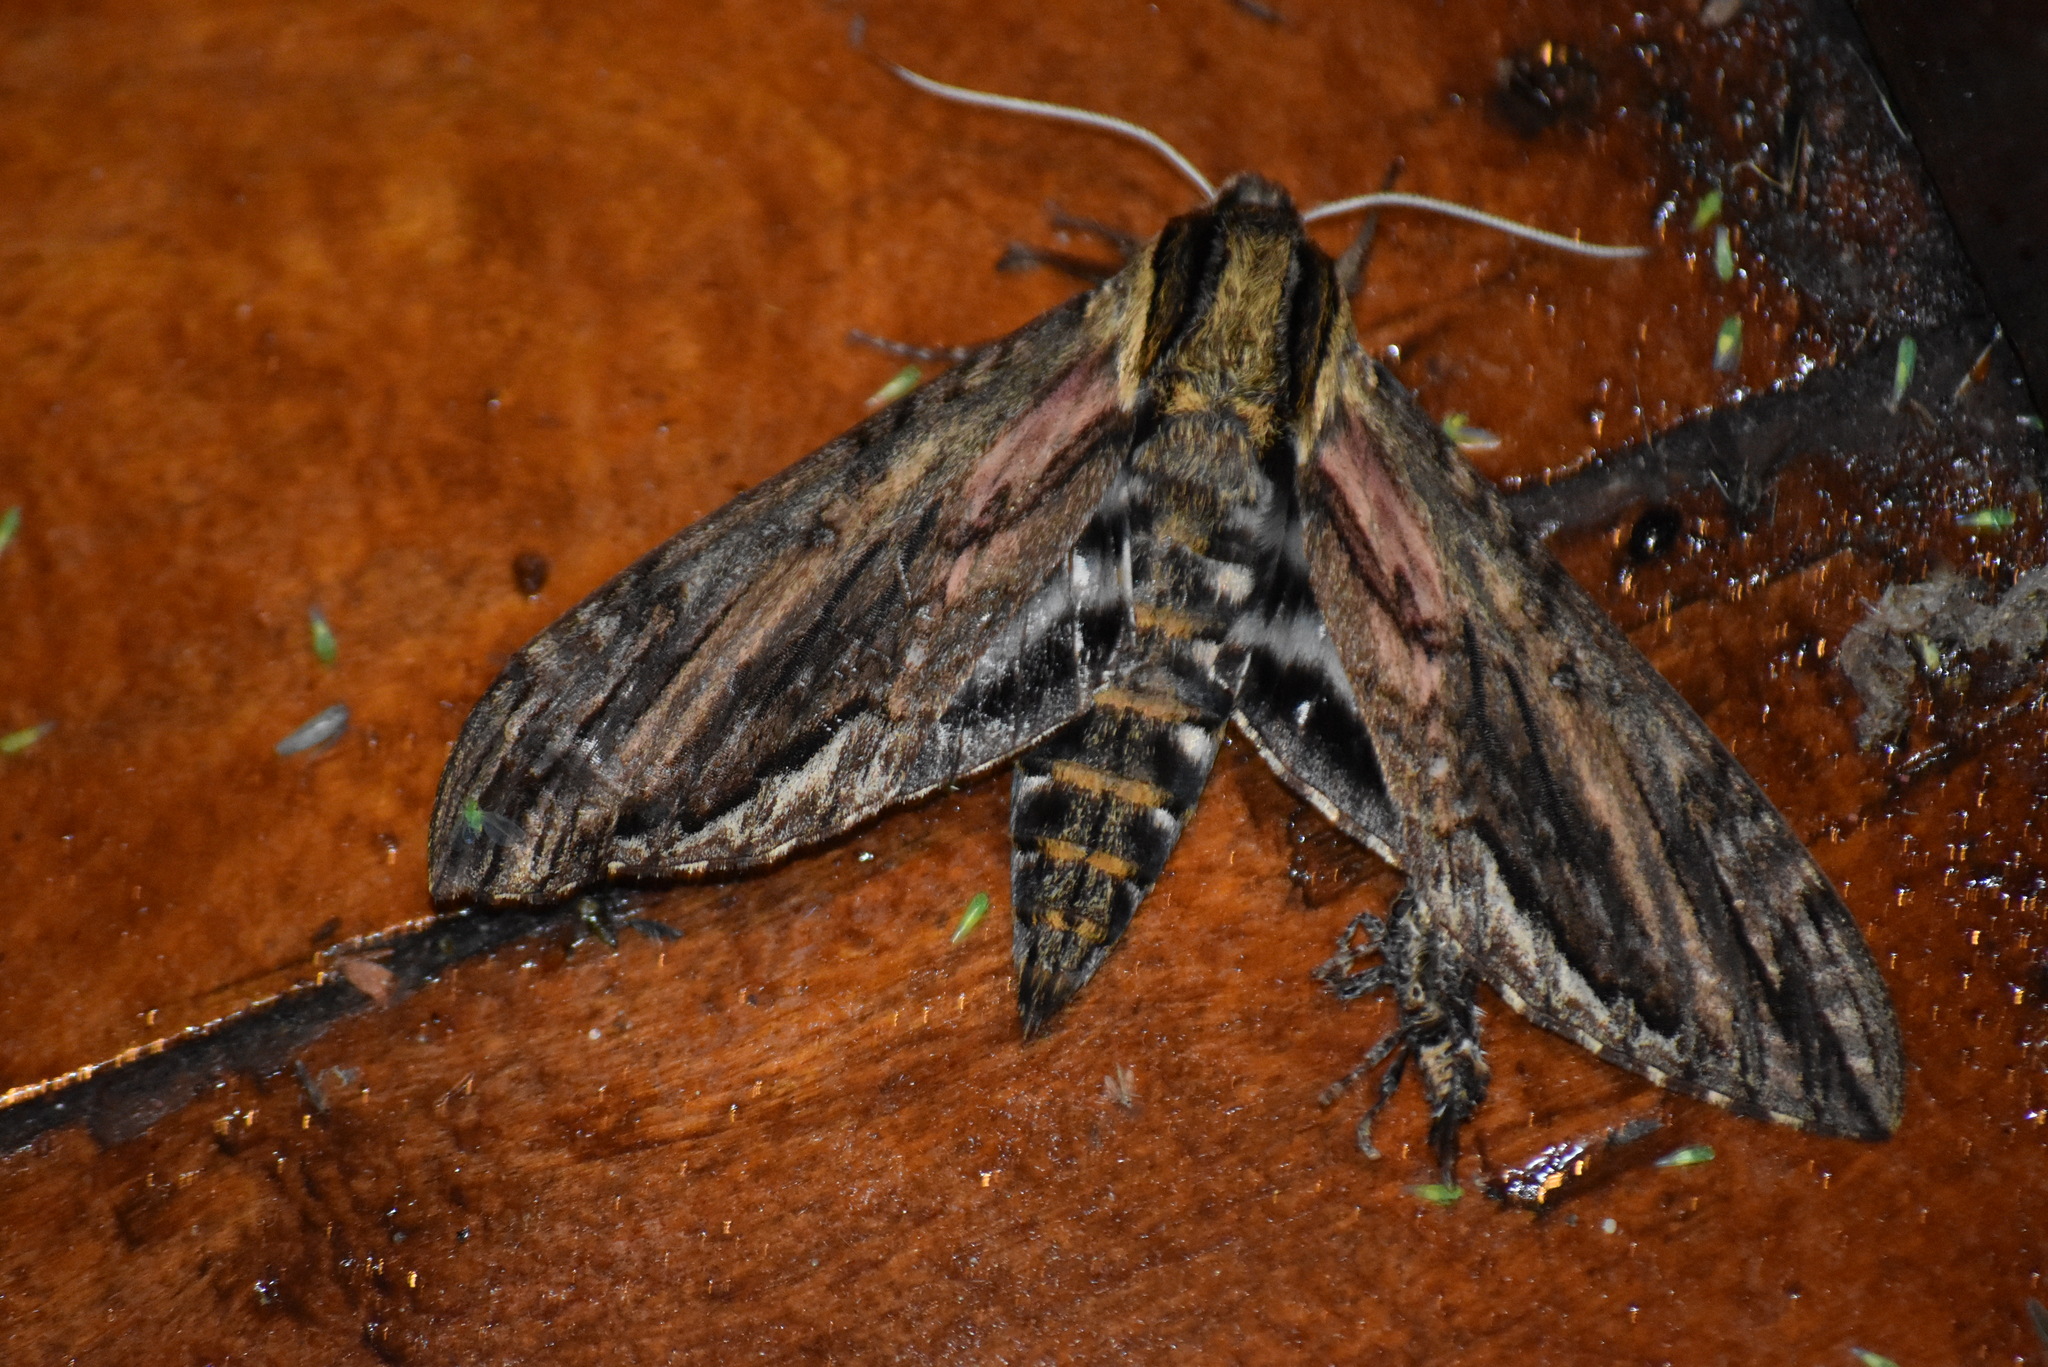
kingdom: Animalia
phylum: Arthropoda
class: Insecta
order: Lepidoptera
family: Sphingidae
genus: Lintneria
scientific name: Lintneria justiciae
